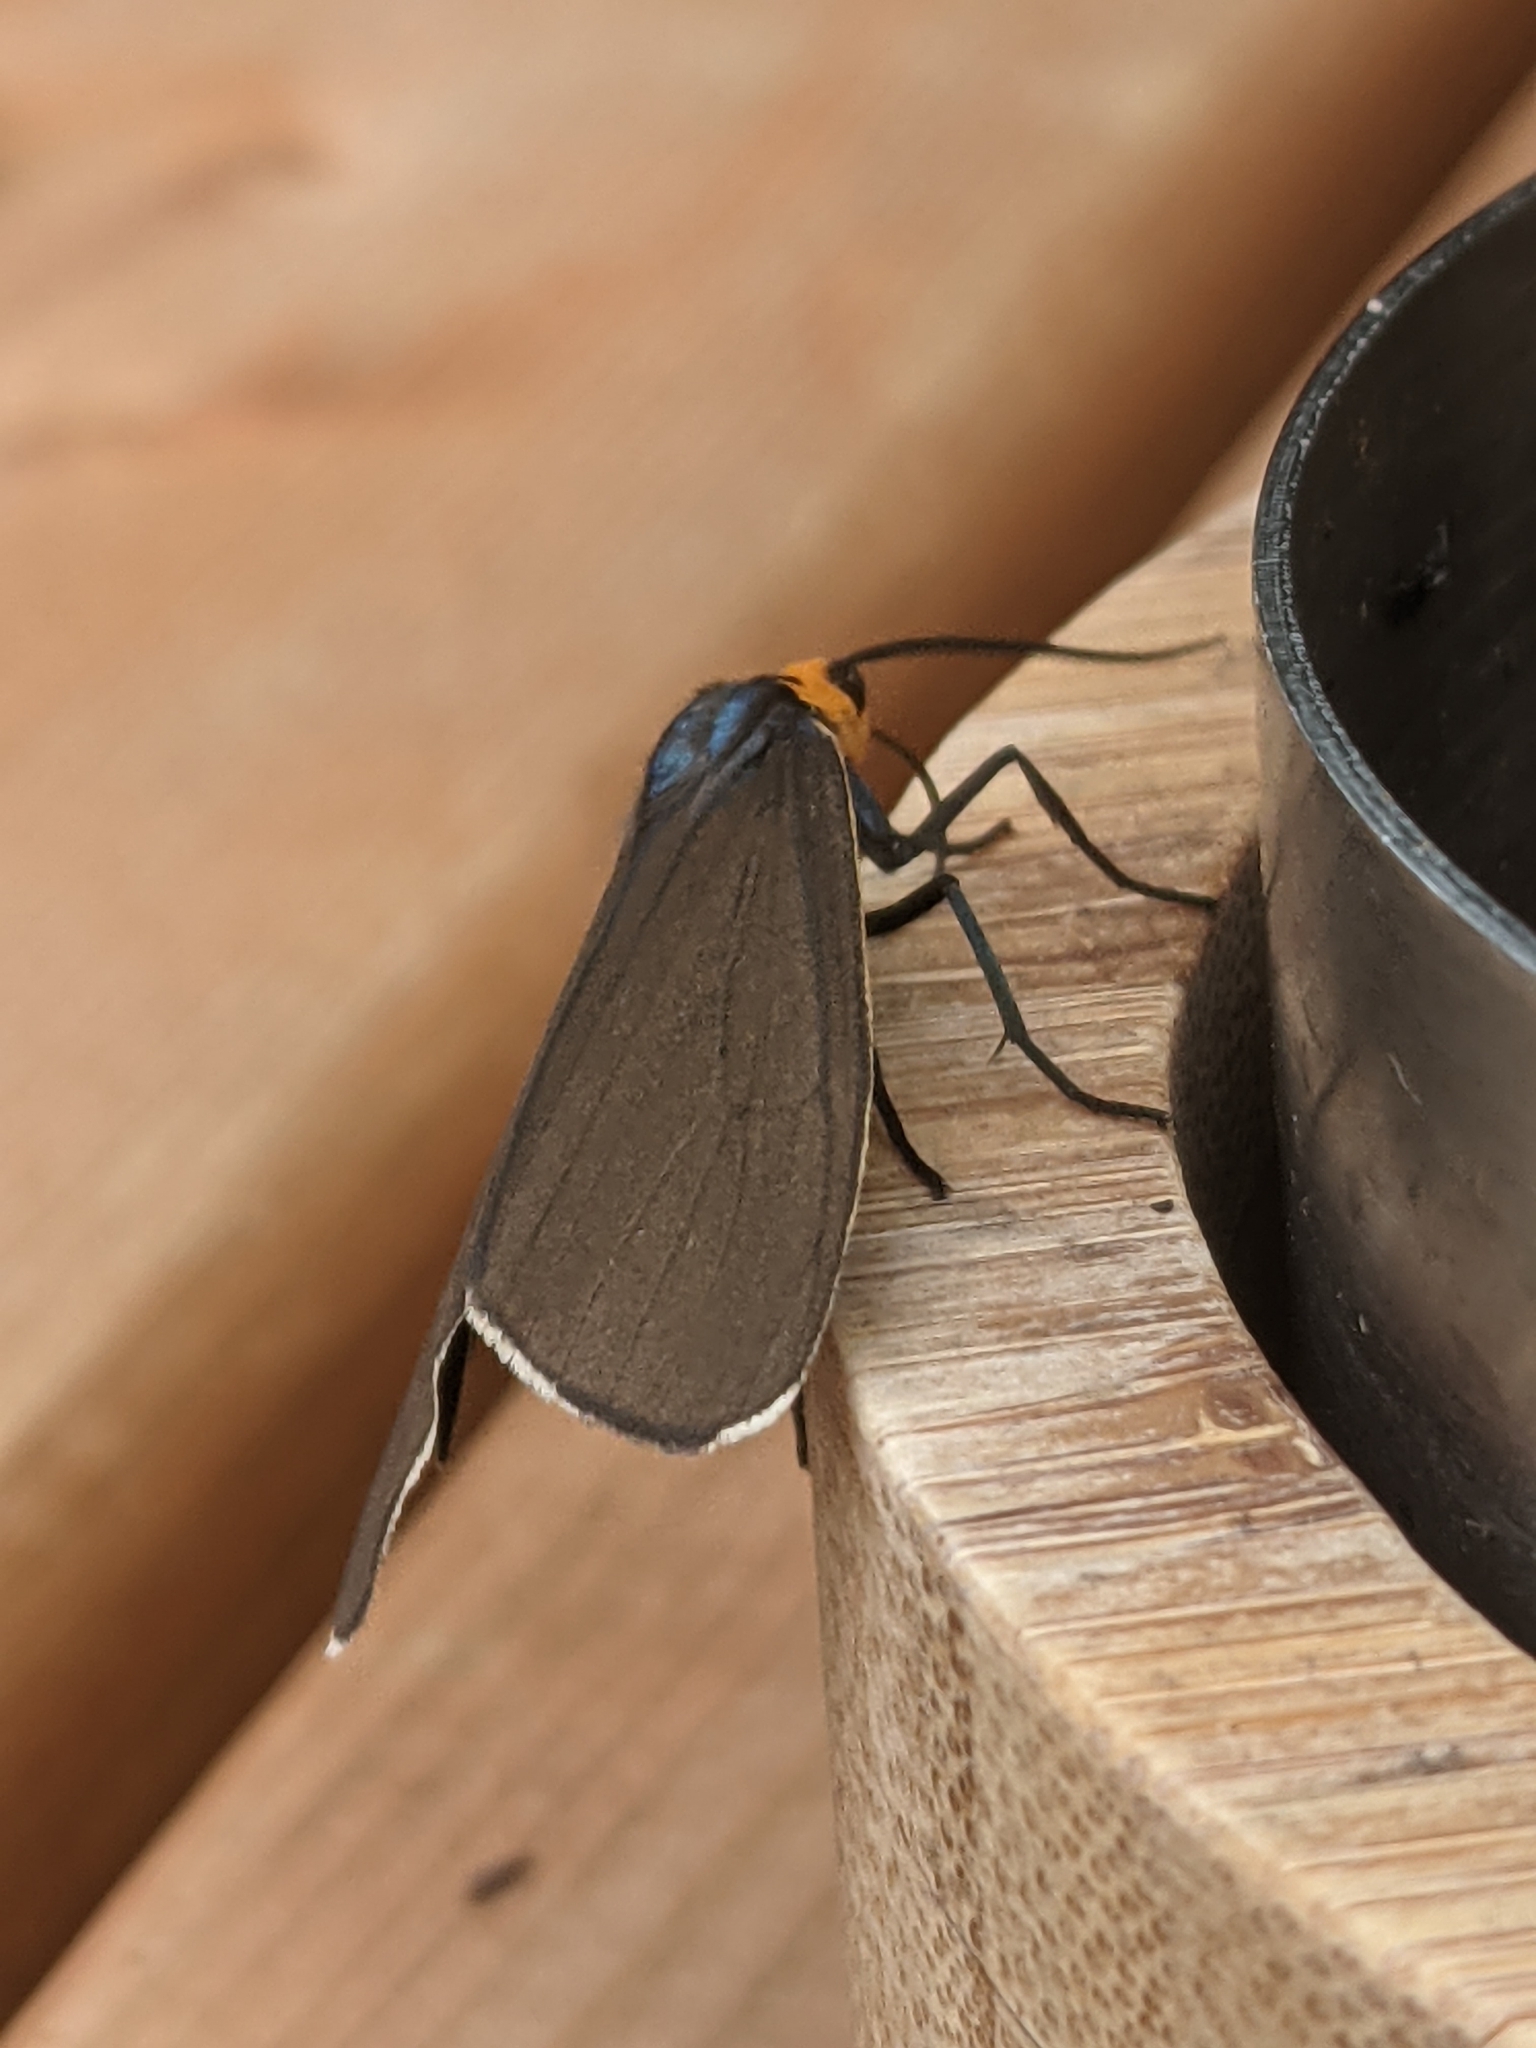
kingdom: Animalia
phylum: Arthropoda
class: Insecta
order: Lepidoptera
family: Erebidae
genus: Ctenucha
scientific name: Ctenucha virginica
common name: Virginia ctenucha moth
